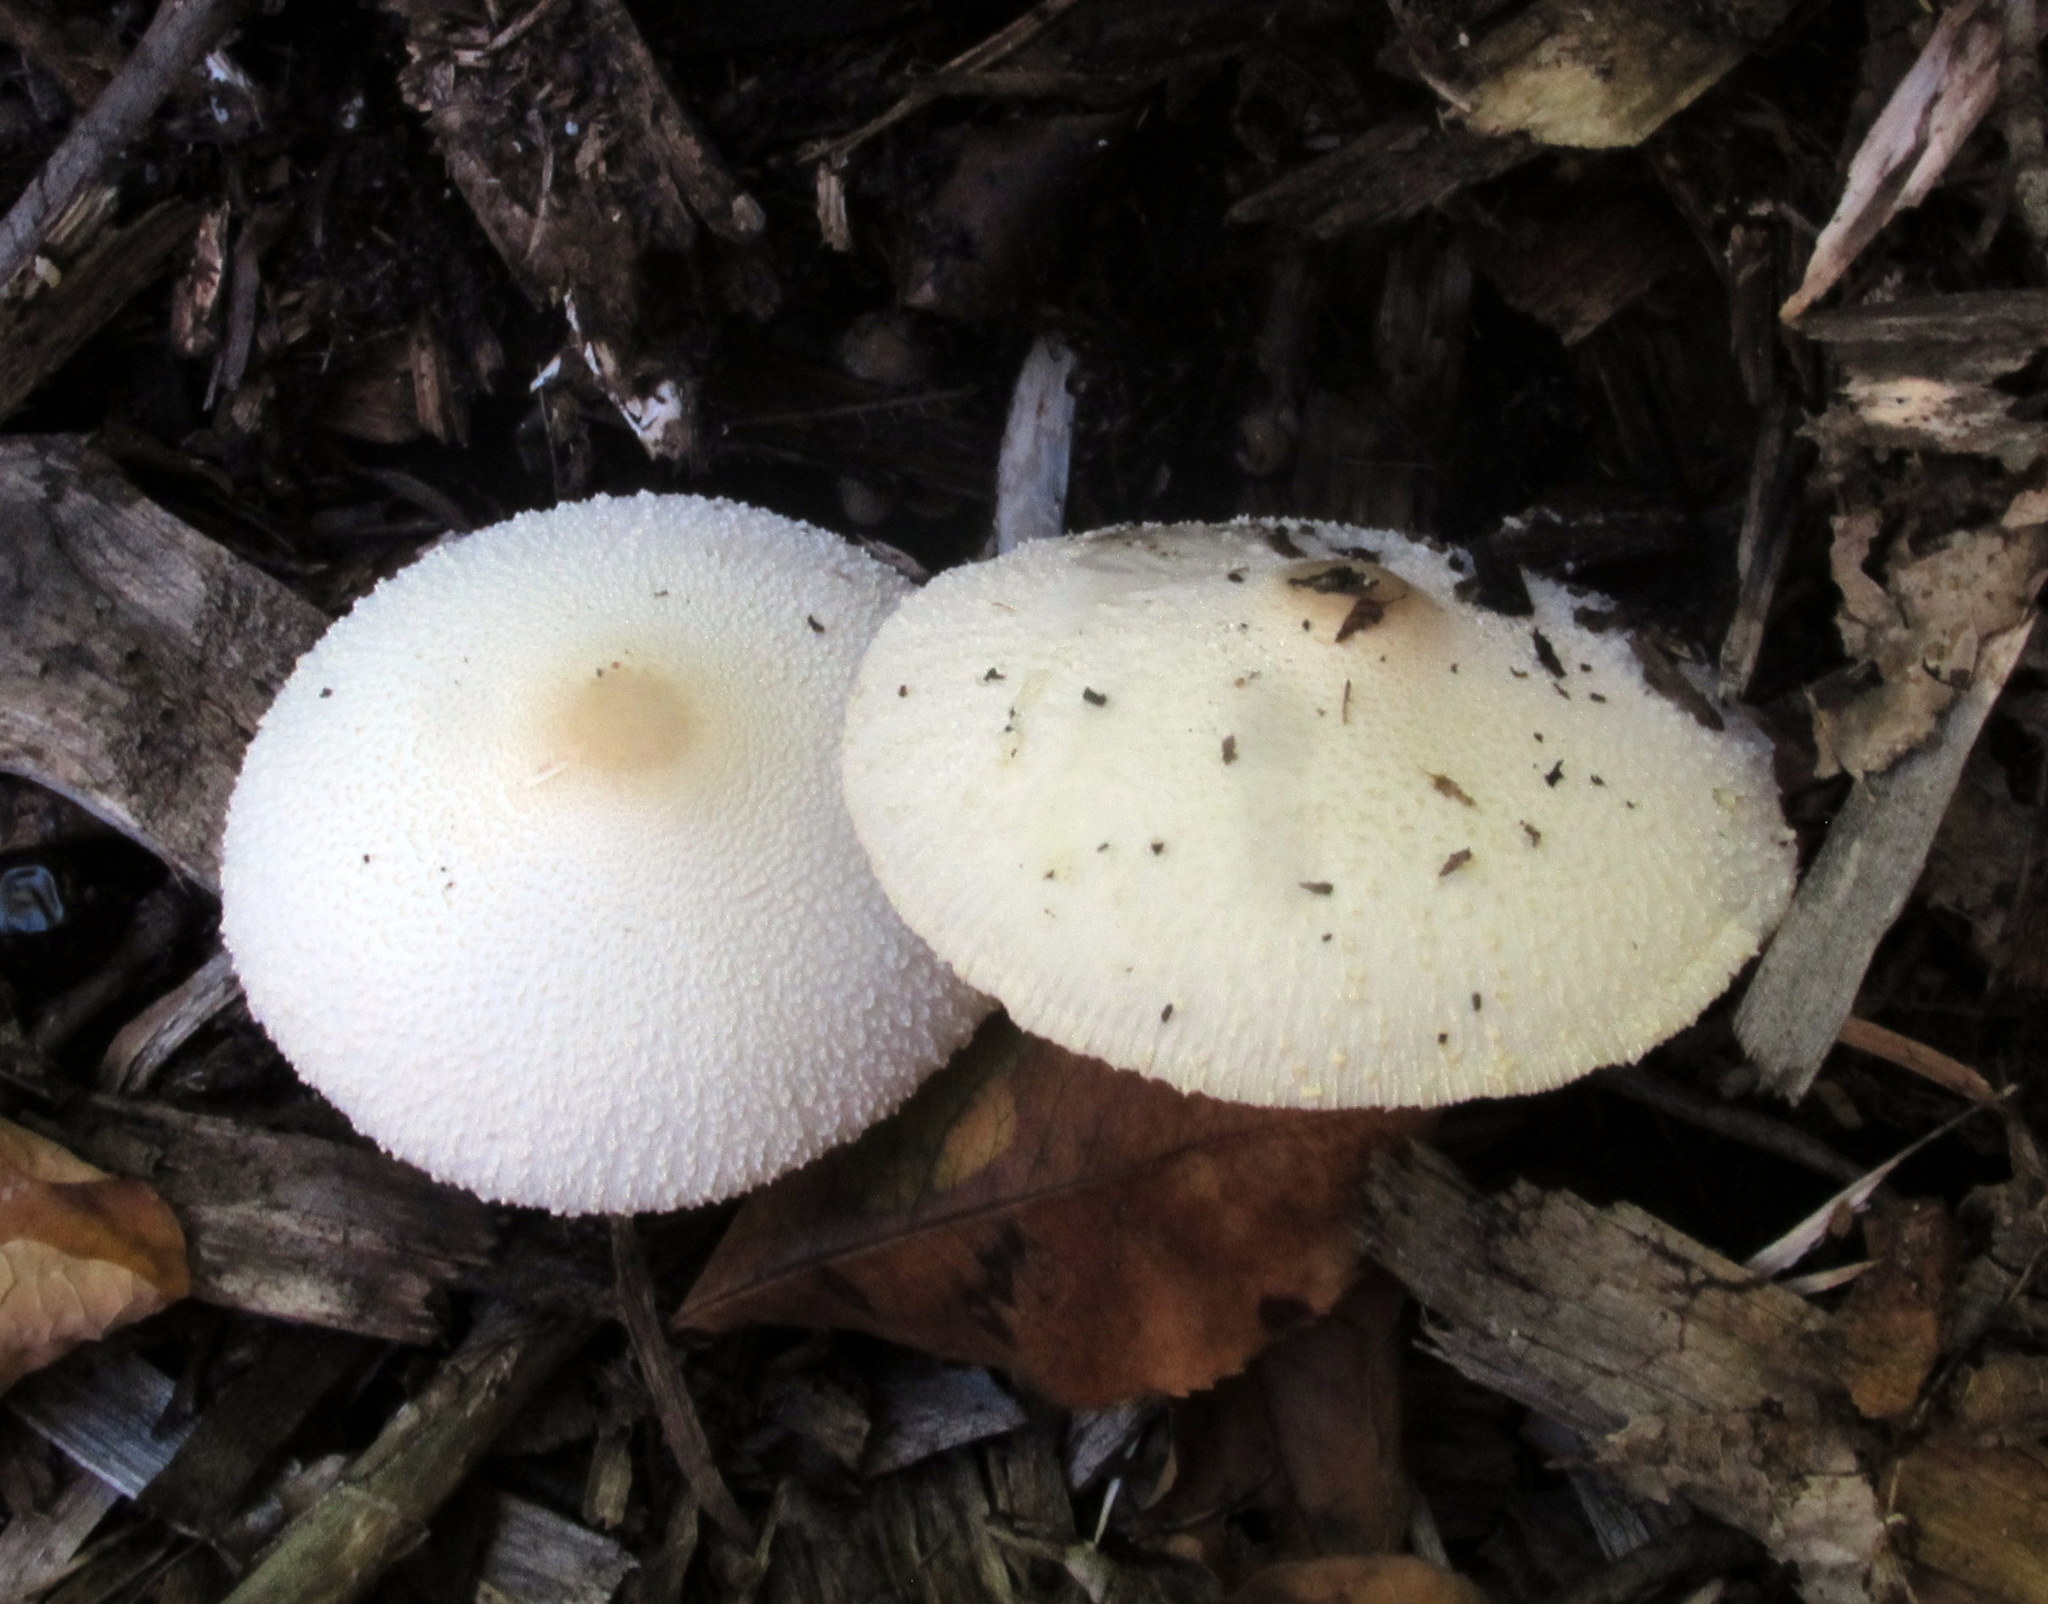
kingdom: Fungi
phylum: Basidiomycota
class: Agaricomycetes
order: Agaricales
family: Agaricaceae
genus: Leucocoprinus
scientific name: Leucocoprinus cepistipes
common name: Onion-stalk parasol
